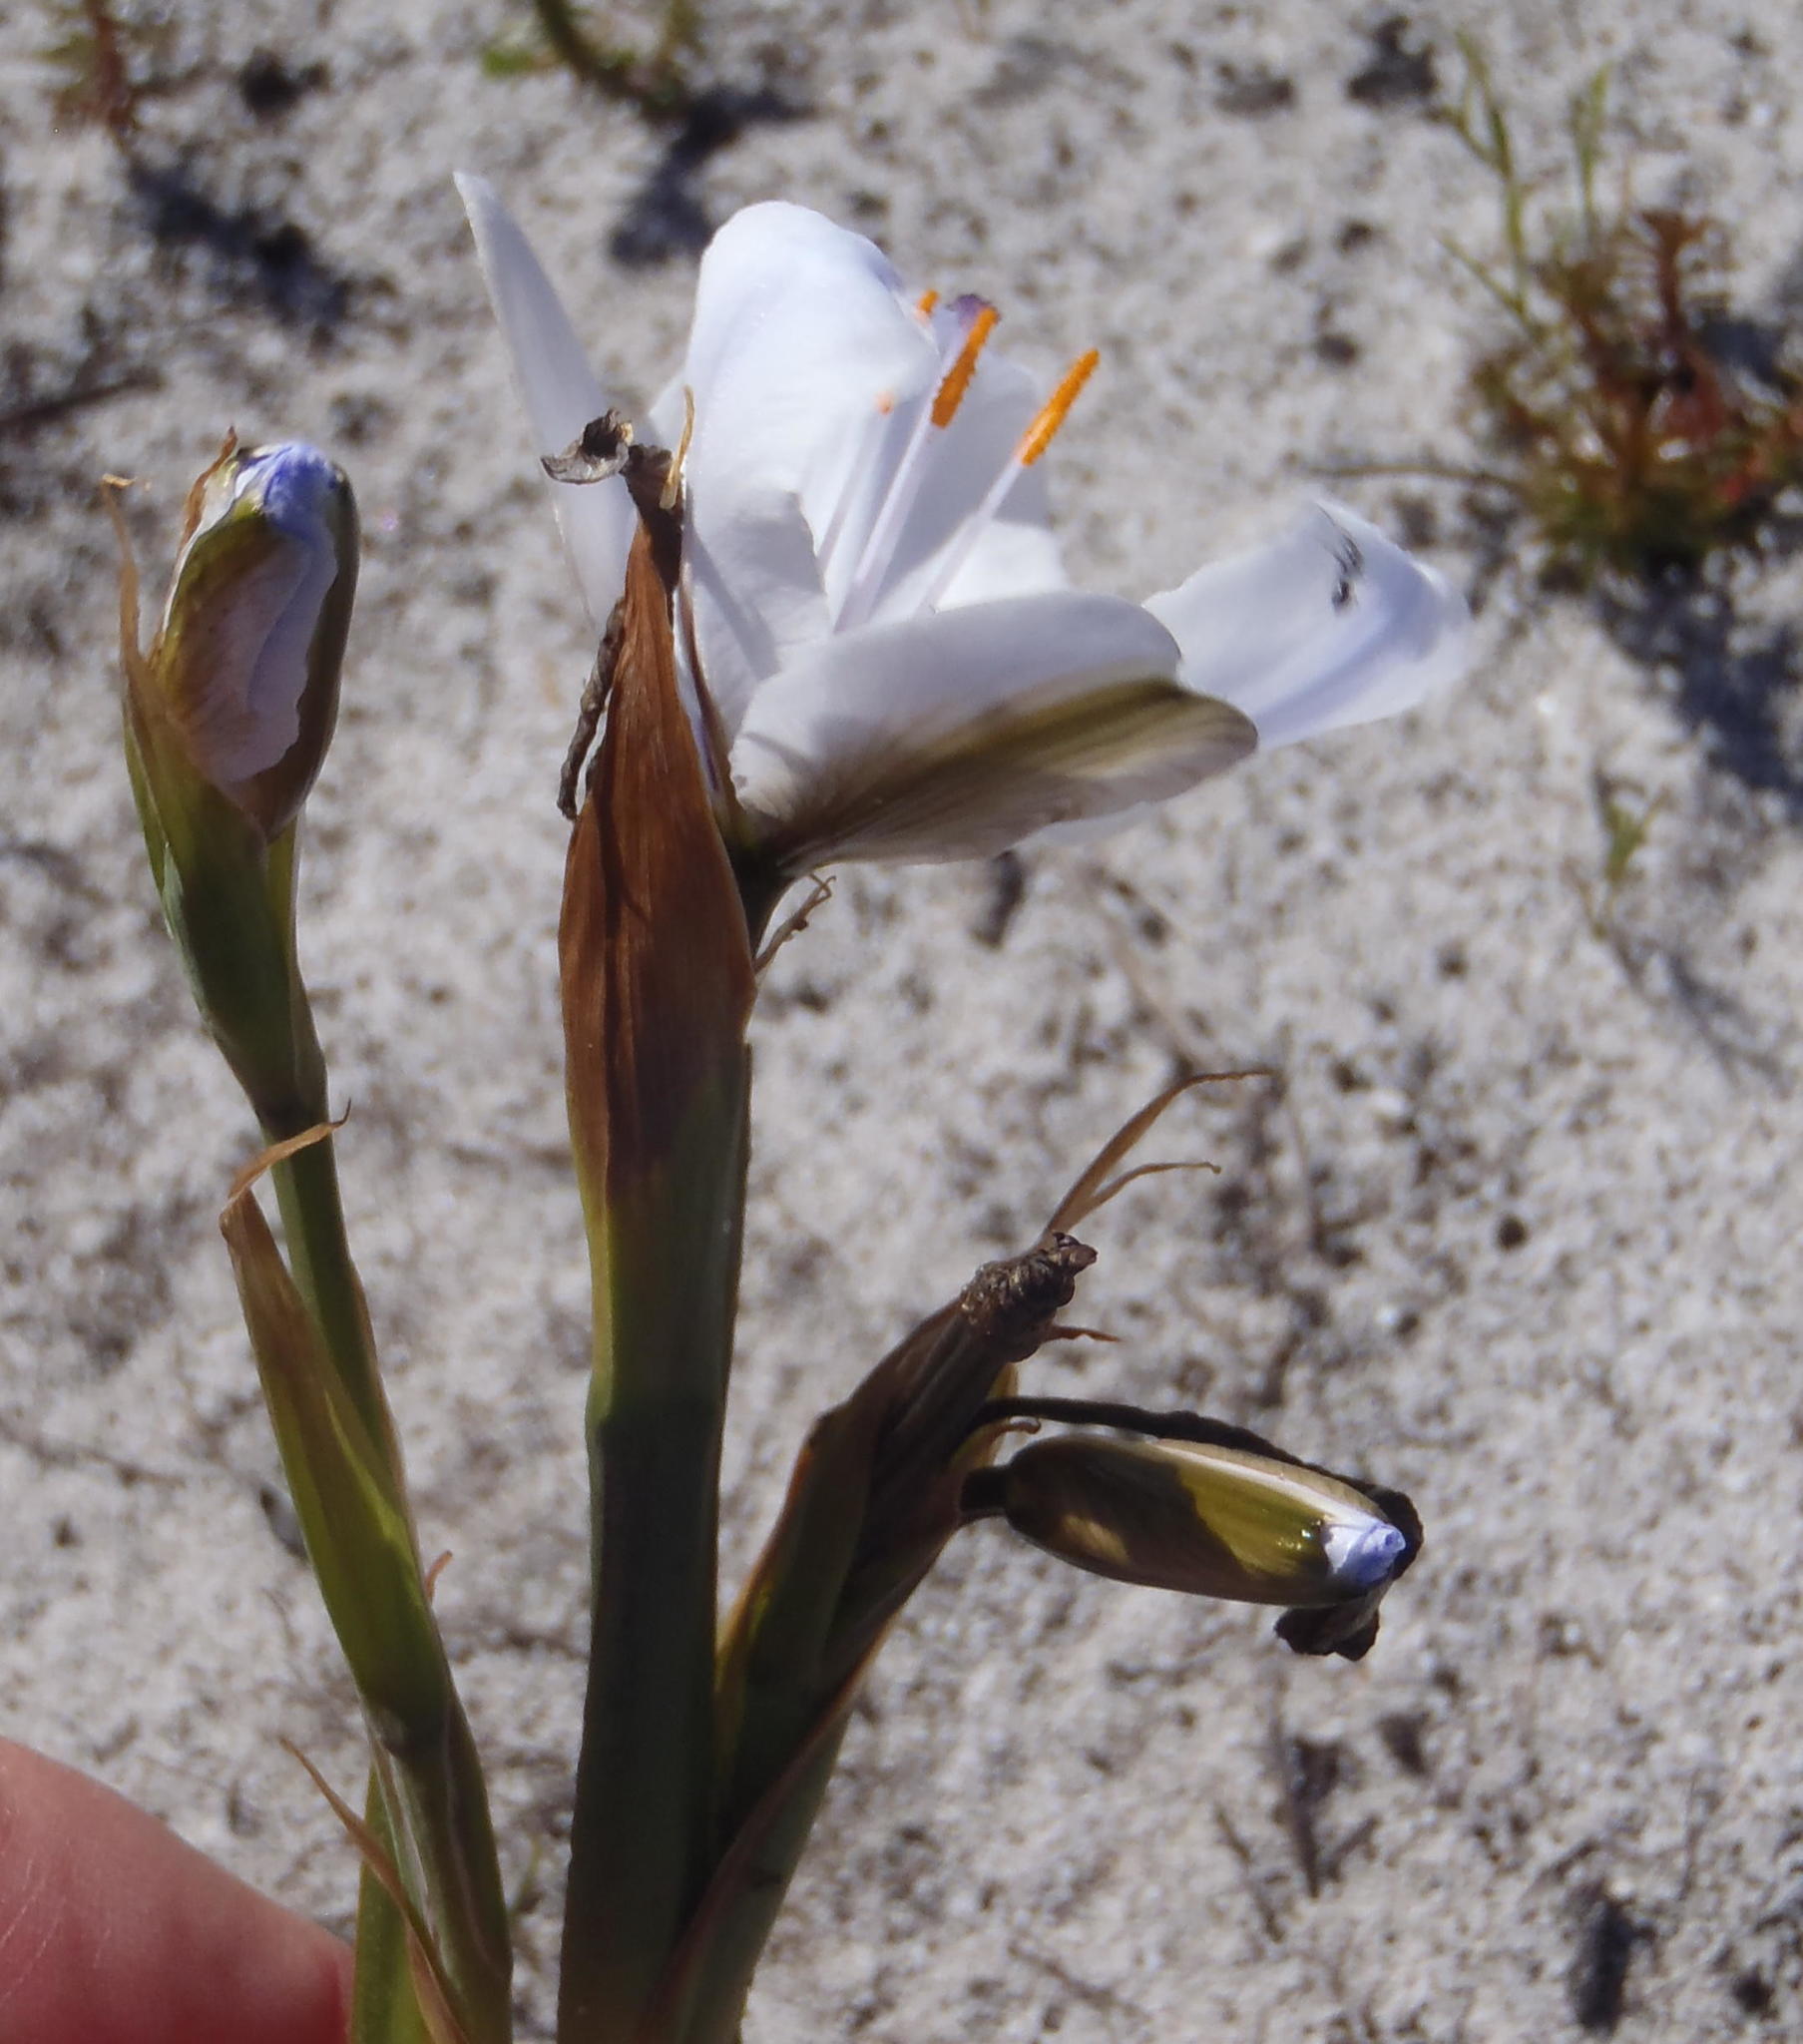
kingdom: Plantae
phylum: Tracheophyta
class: Liliopsida
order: Asparagales
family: Iridaceae
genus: Aristea
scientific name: Aristea spiralis
